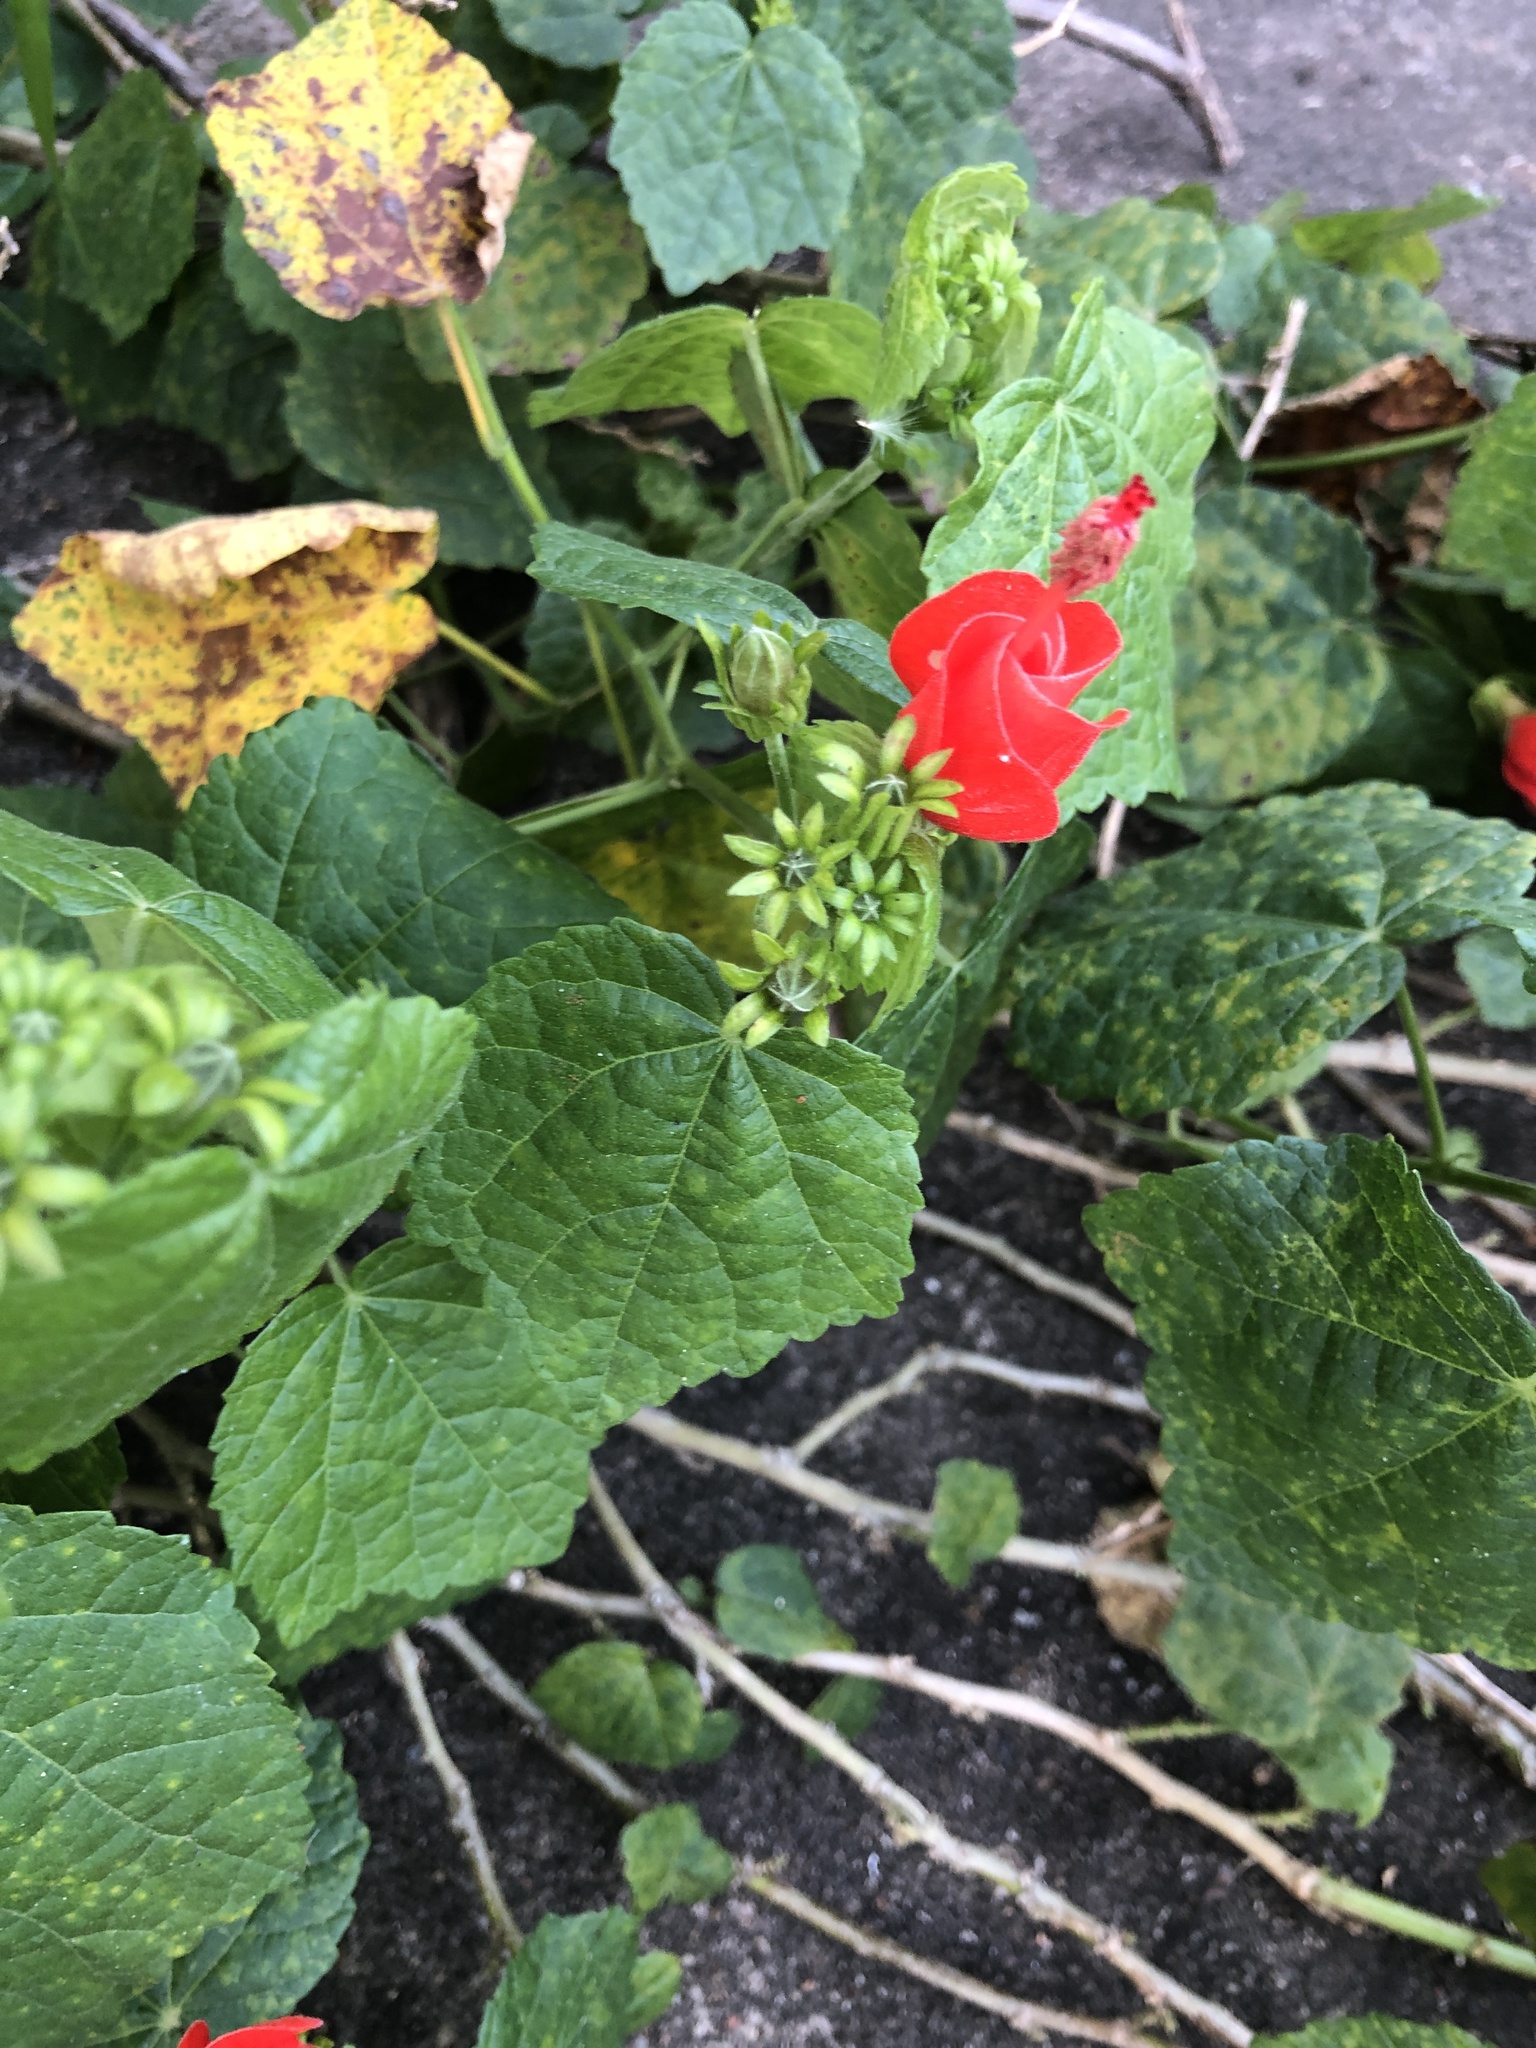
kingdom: Plantae
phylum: Tracheophyta
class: Magnoliopsida
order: Malvales
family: Malvaceae
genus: Malvaviscus
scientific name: Malvaviscus arboreus
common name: Wax mallow
